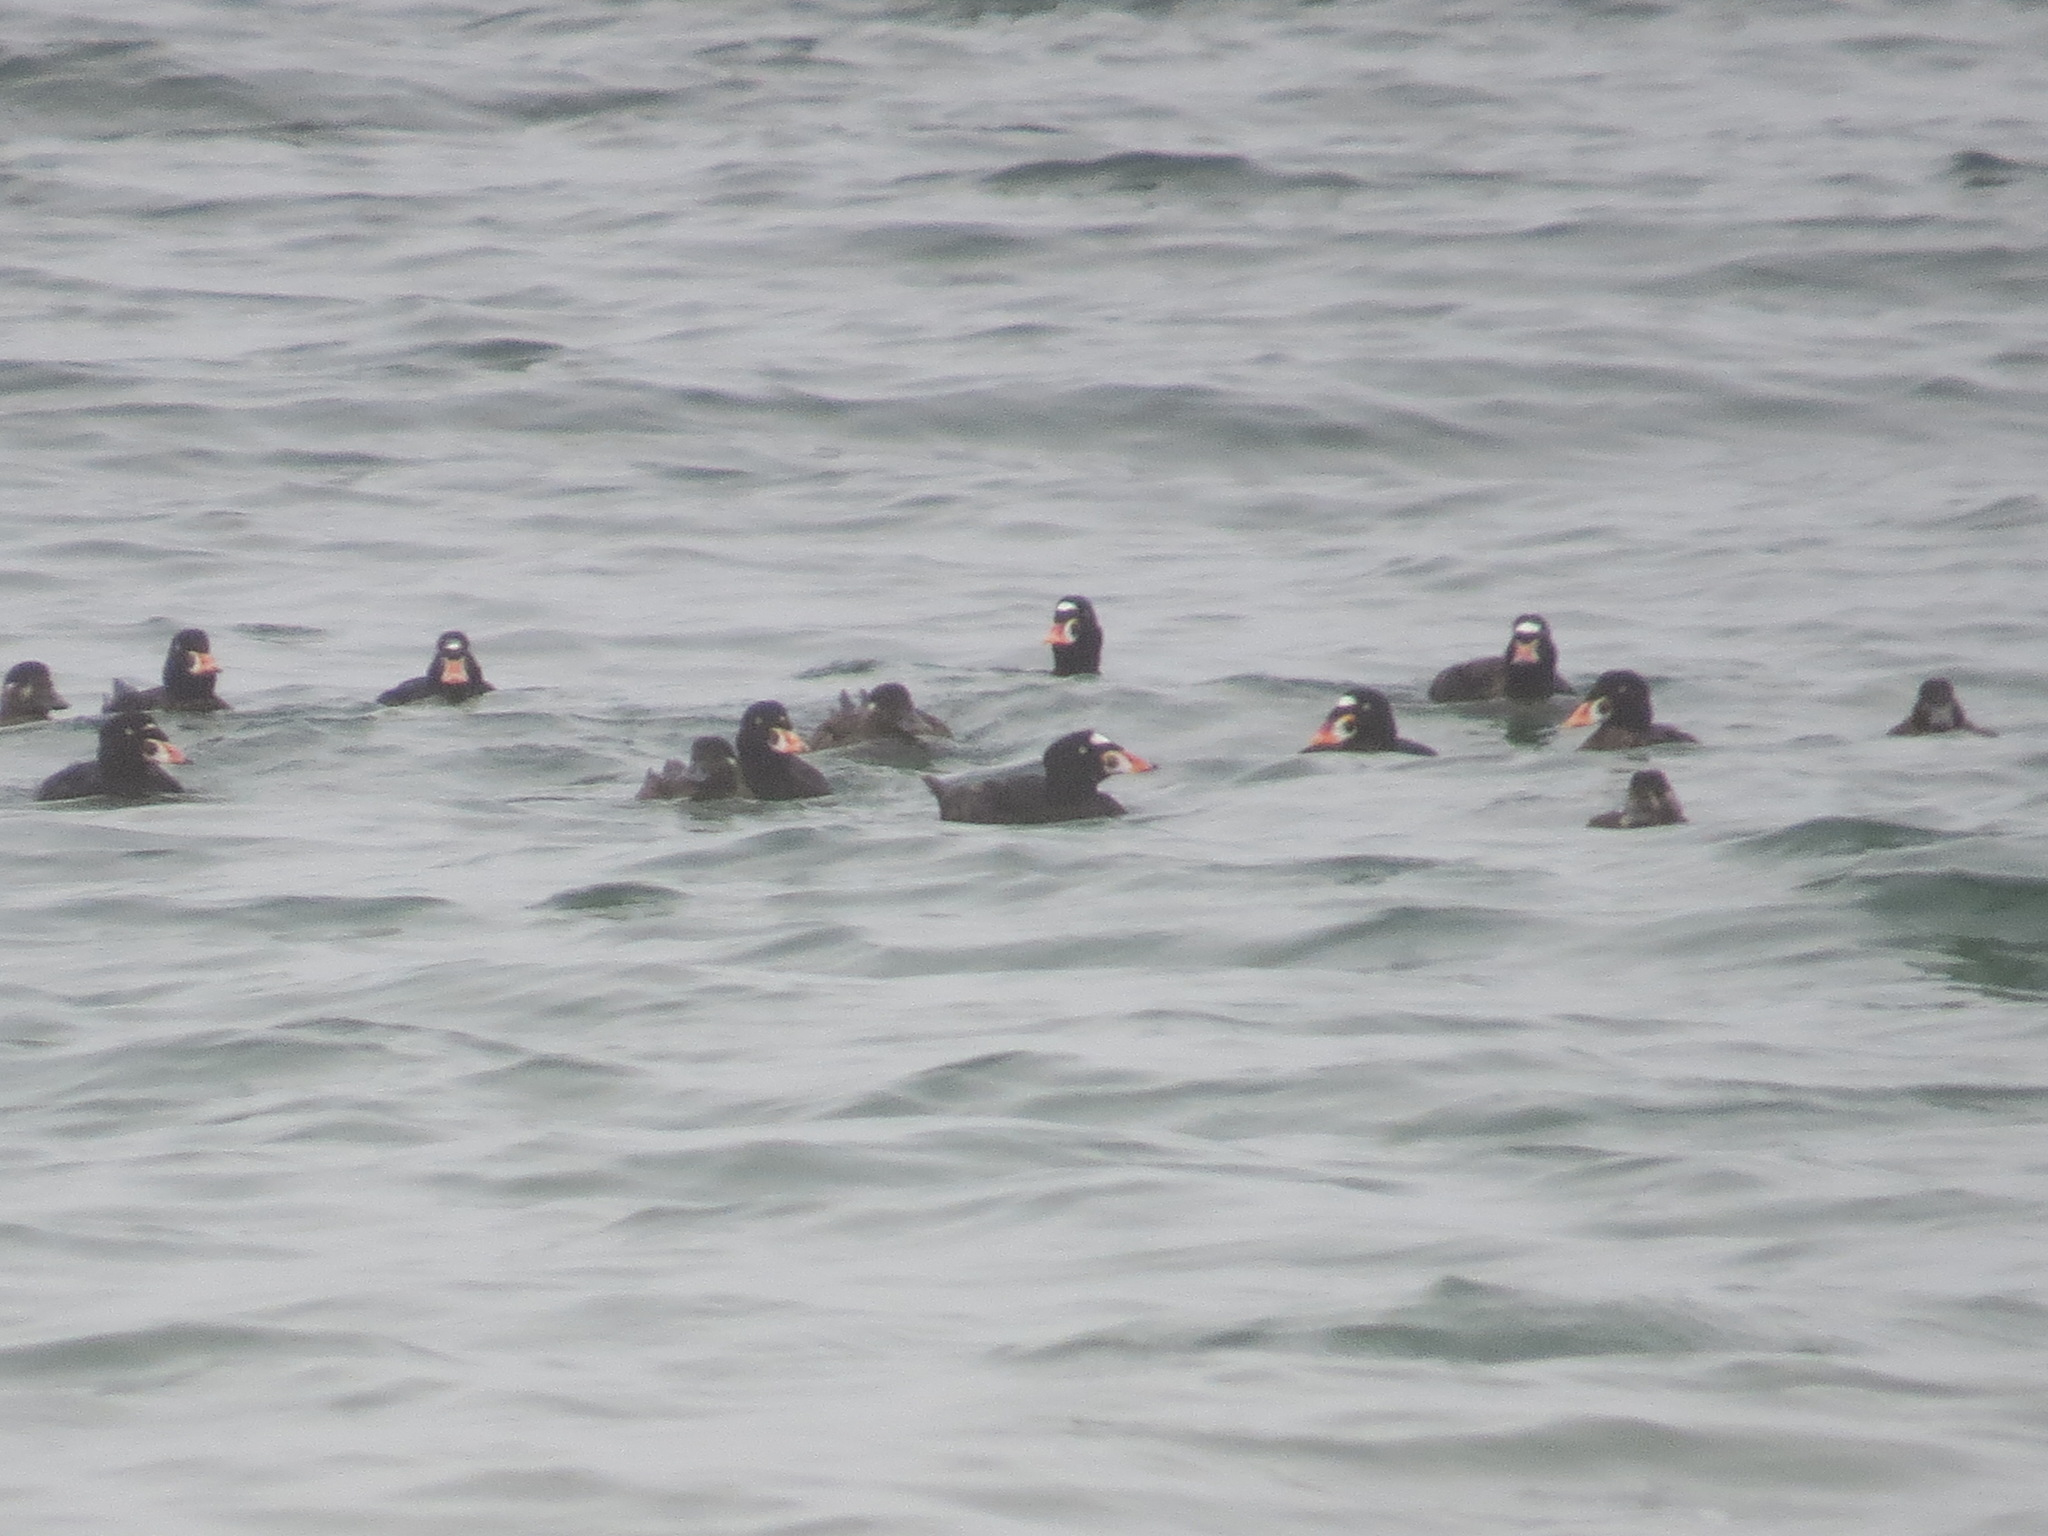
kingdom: Animalia
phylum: Chordata
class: Aves
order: Anseriformes
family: Anatidae
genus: Melanitta
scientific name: Melanitta perspicillata
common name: Surf scoter
